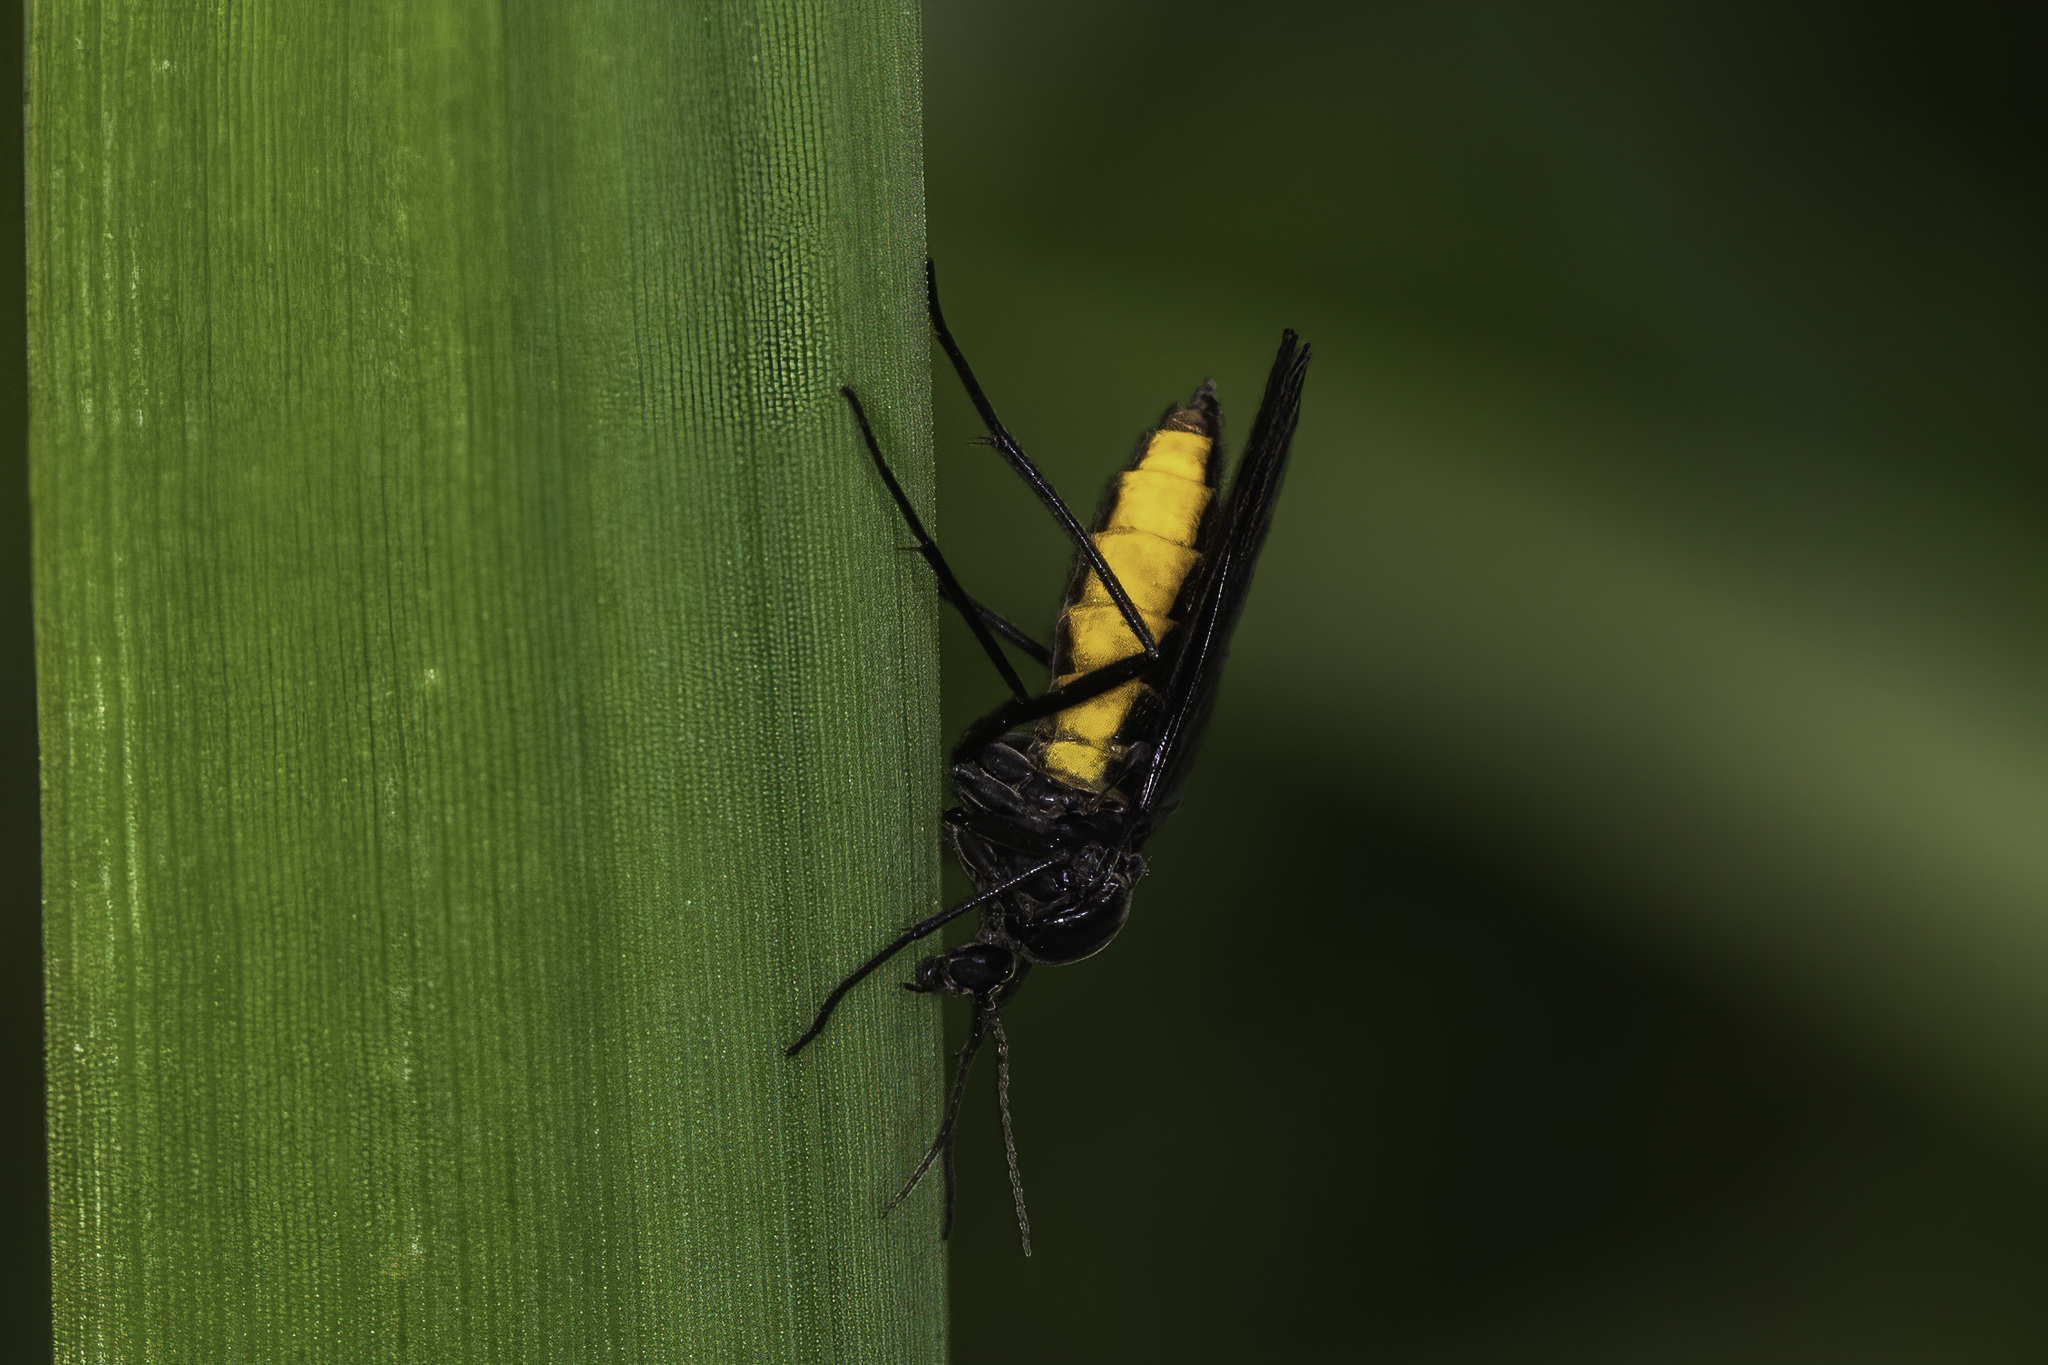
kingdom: Animalia
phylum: Arthropoda
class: Insecta
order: Diptera
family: Sciaridae
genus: Sciara
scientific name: Sciara hemerobioides
